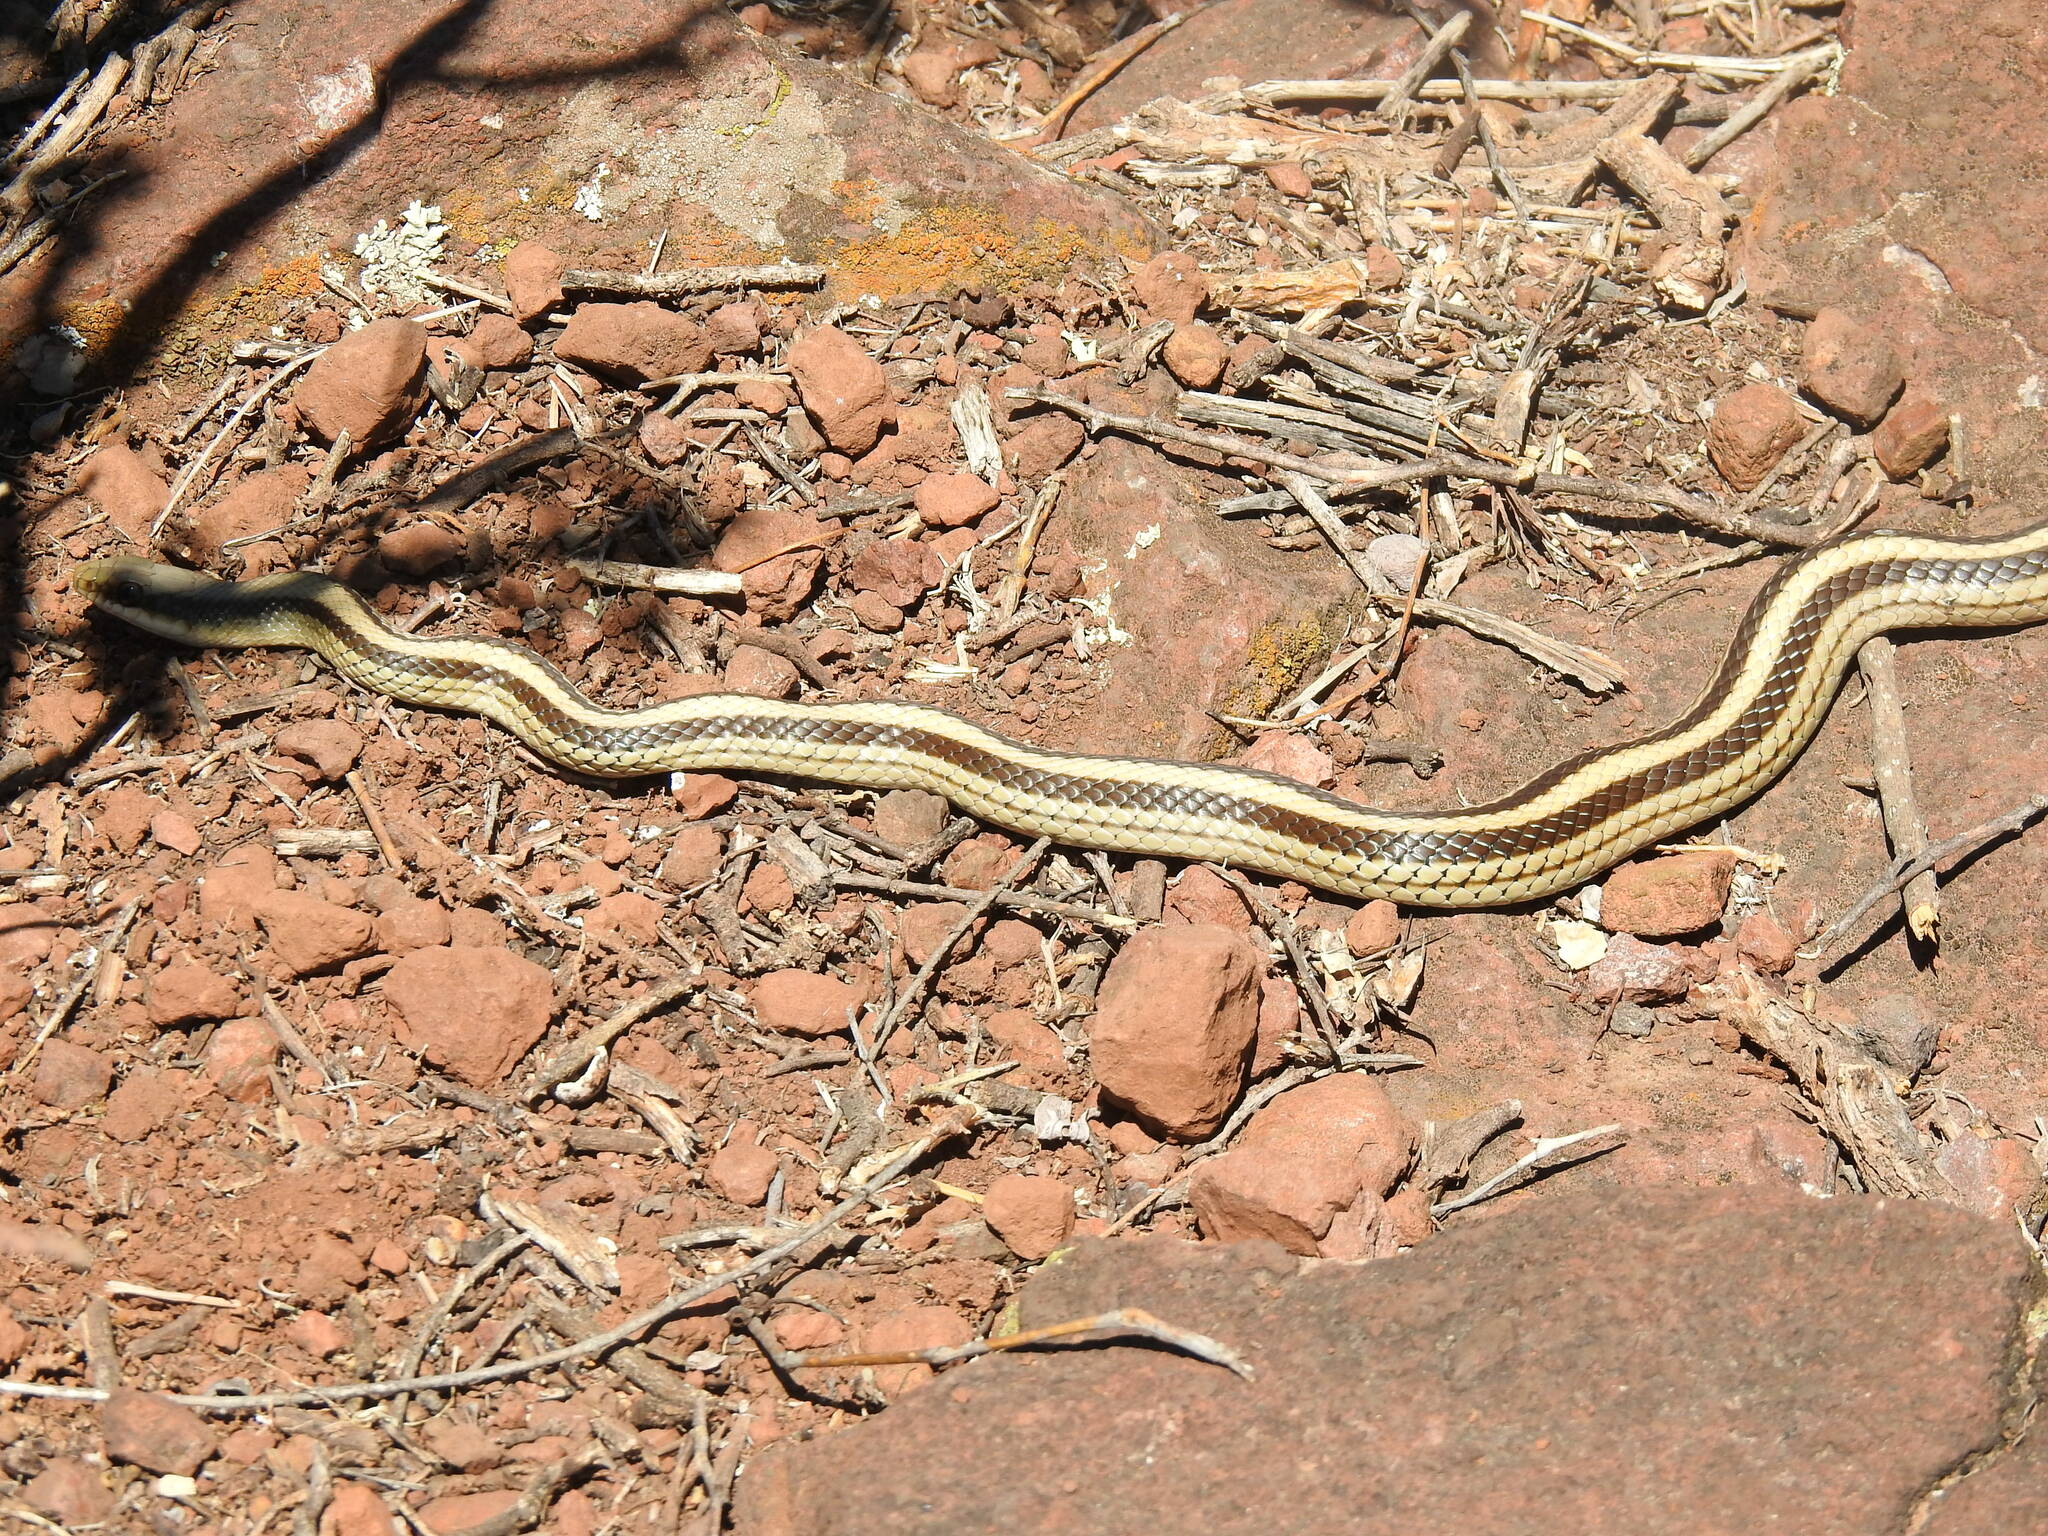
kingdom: Animalia
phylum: Chordata
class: Squamata
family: Colubridae
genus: Salvadora
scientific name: Salvadora lineata
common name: Texas patchnose snake
